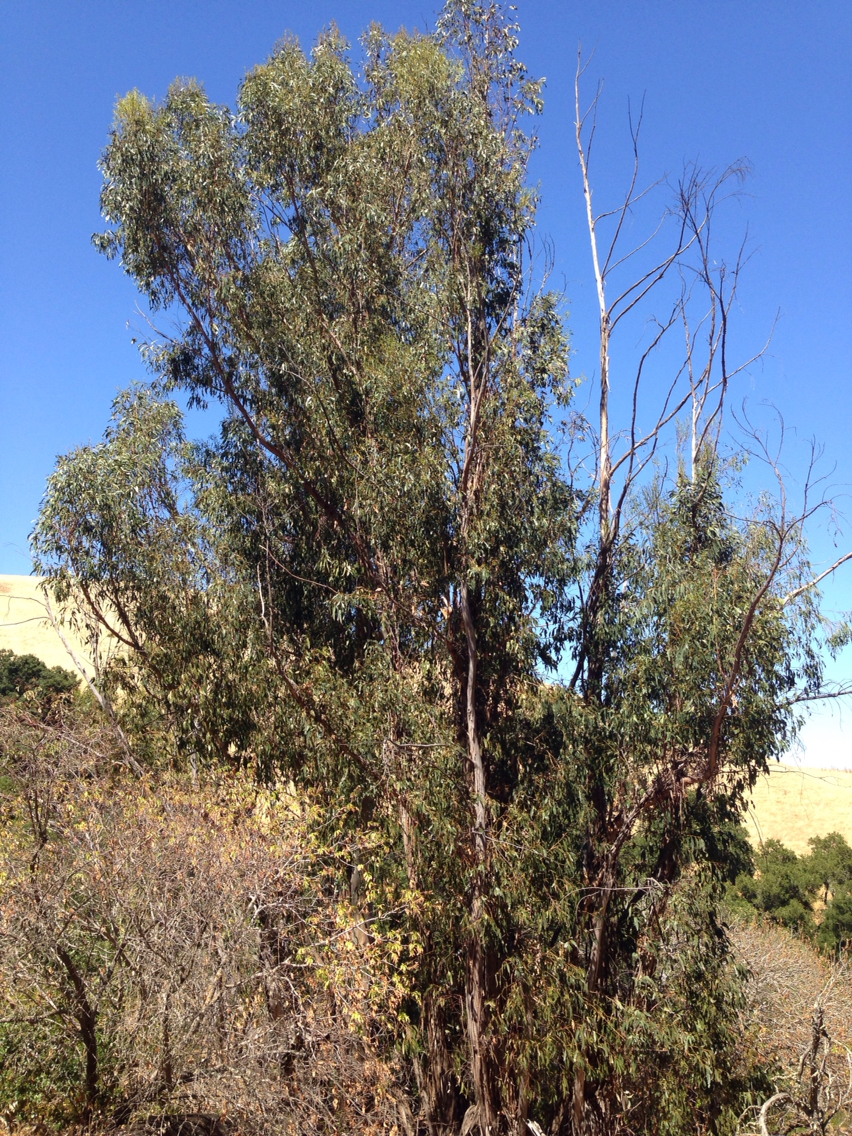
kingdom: Plantae
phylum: Tracheophyta
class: Magnoliopsida
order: Myrtales
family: Myrtaceae
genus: Eucalyptus
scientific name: Eucalyptus globulus
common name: Southern blue-gum
